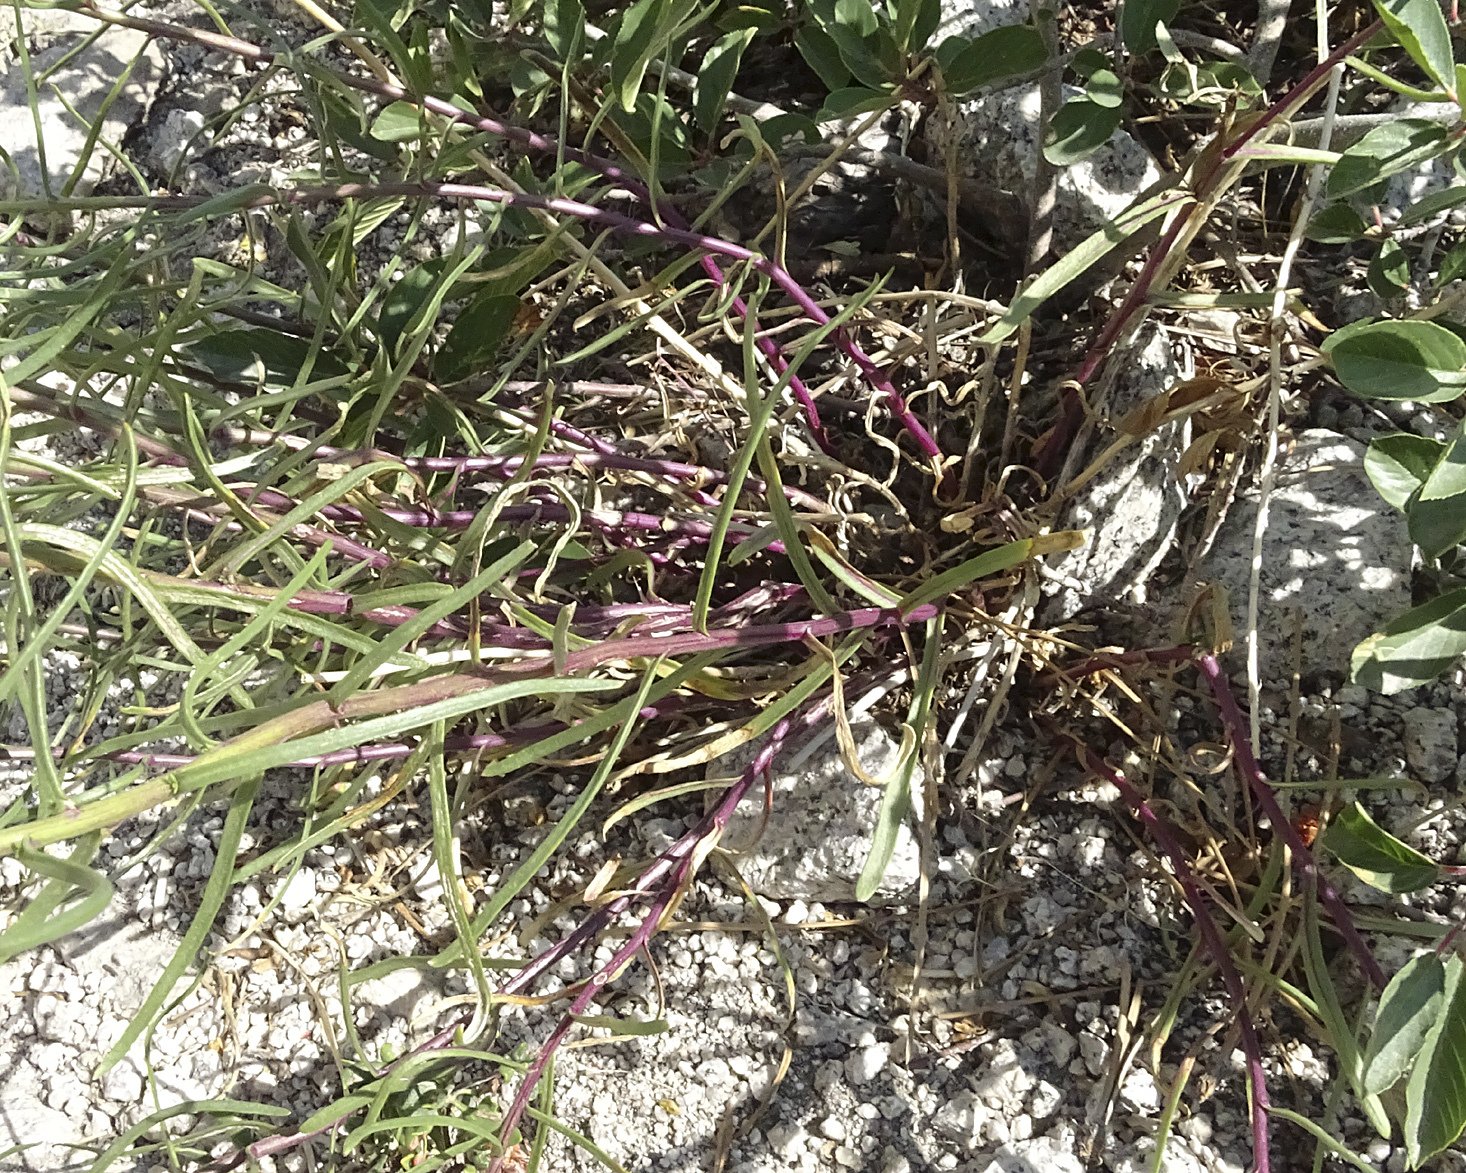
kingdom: Plantae
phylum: Tracheophyta
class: Magnoliopsida
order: Asterales
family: Asteraceae
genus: Senecio
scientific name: Senecio spartioides
